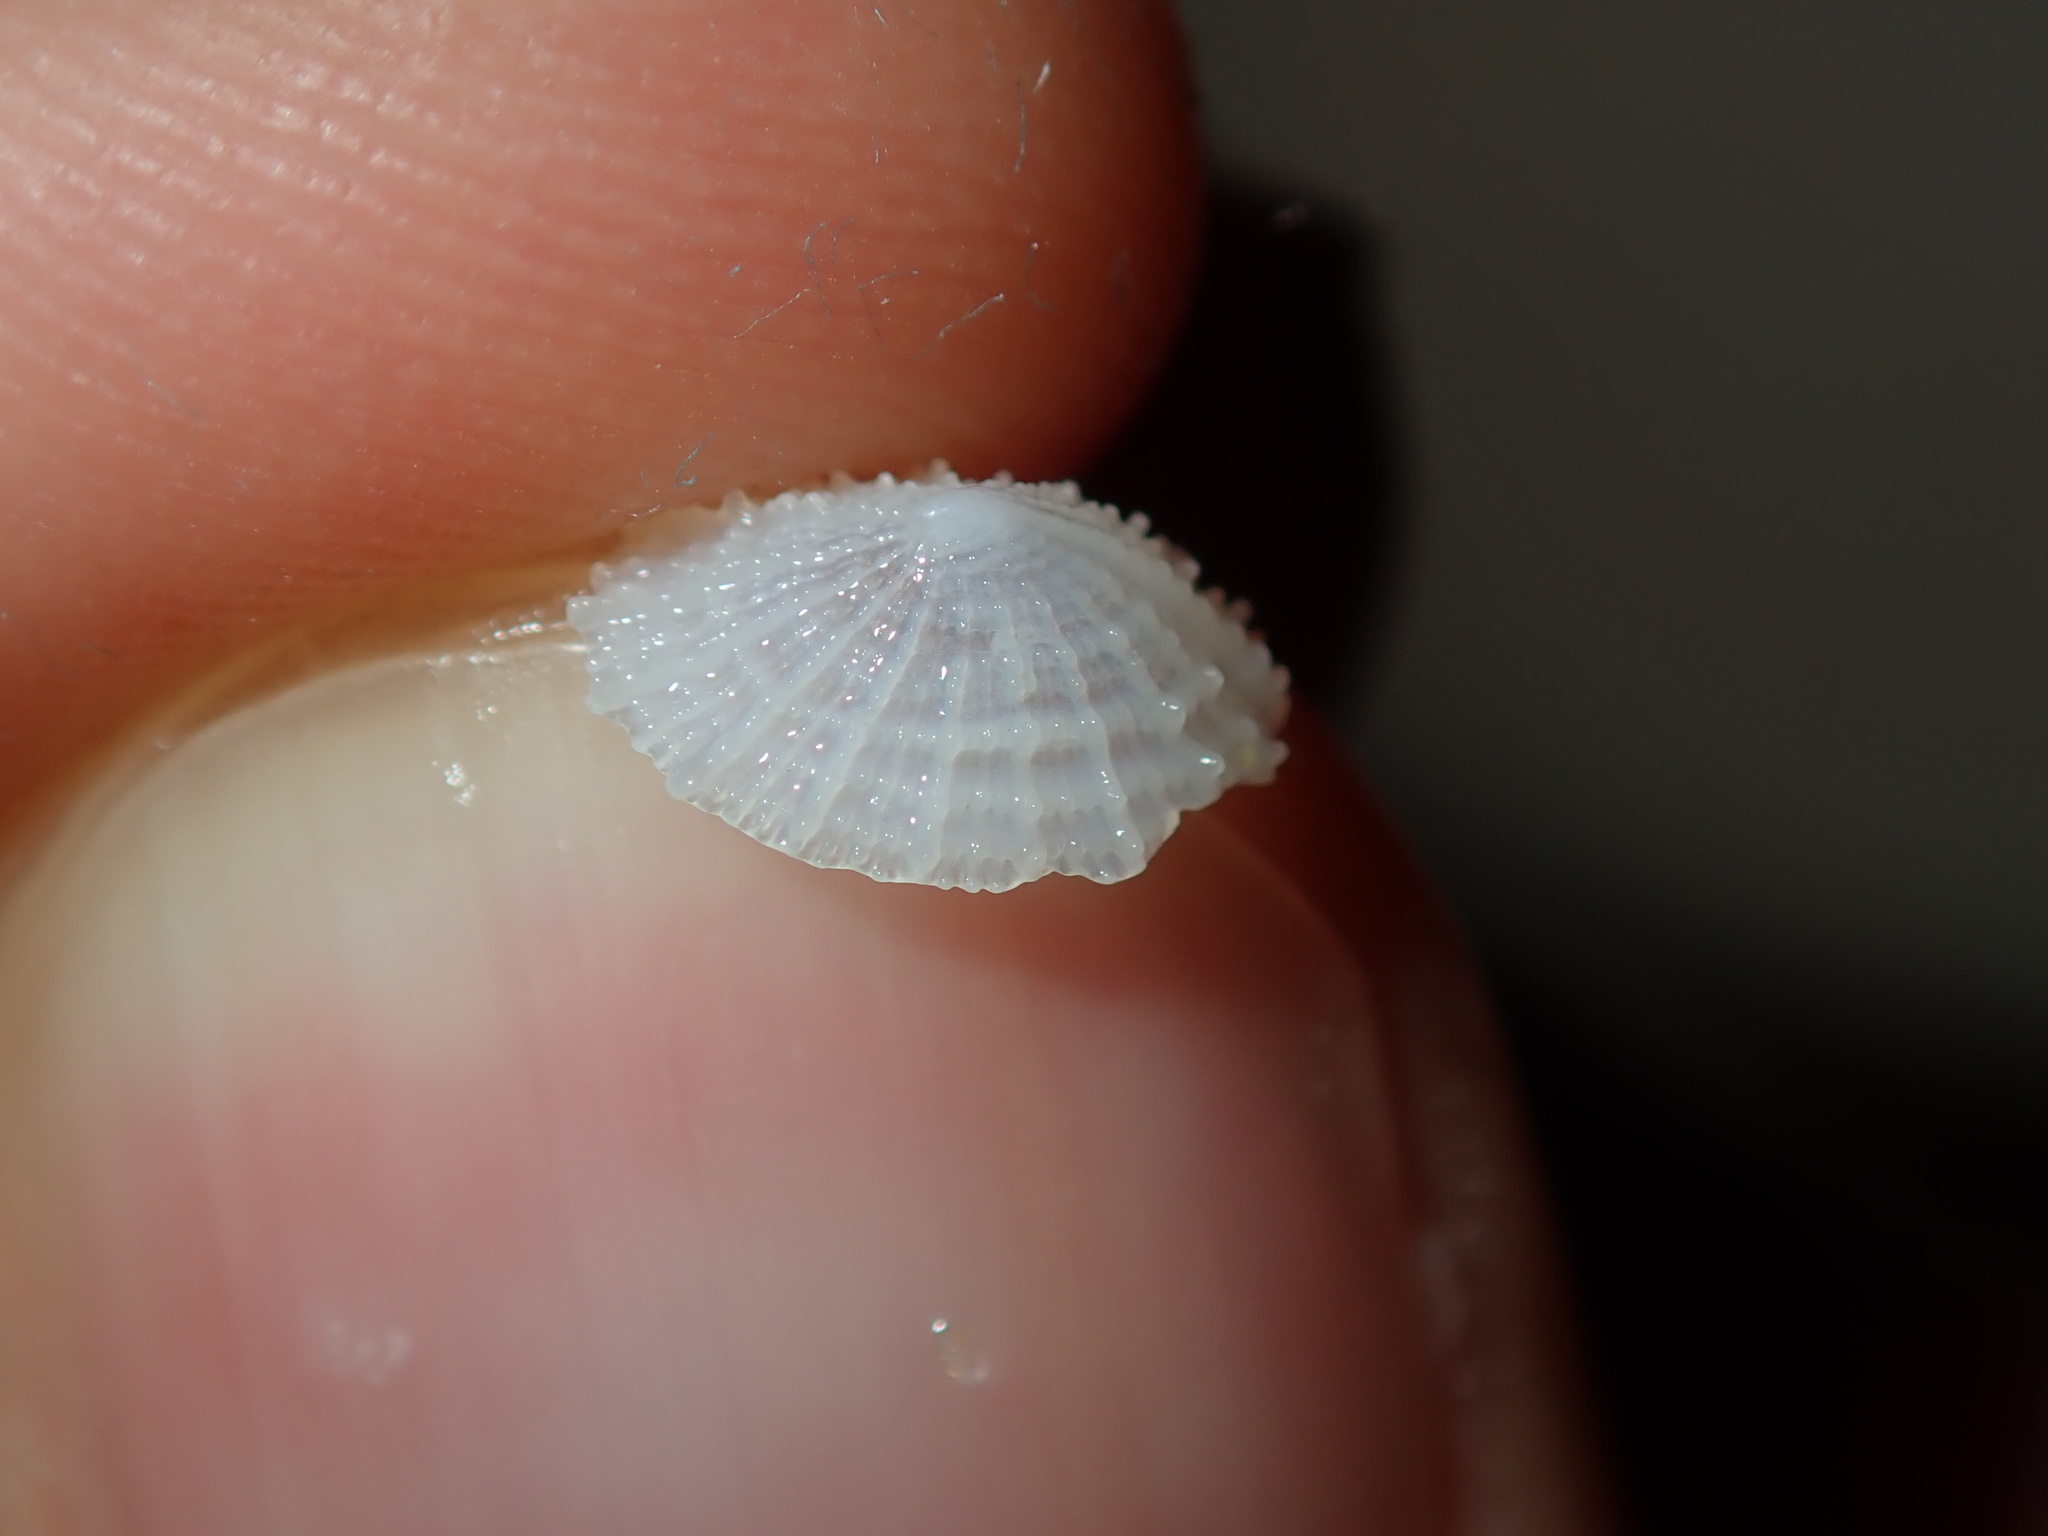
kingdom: Animalia
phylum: Mollusca
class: Gastropoda
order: Lepetellida
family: Fissurellidae
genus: Montfortula
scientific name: Montfortula rugosa
